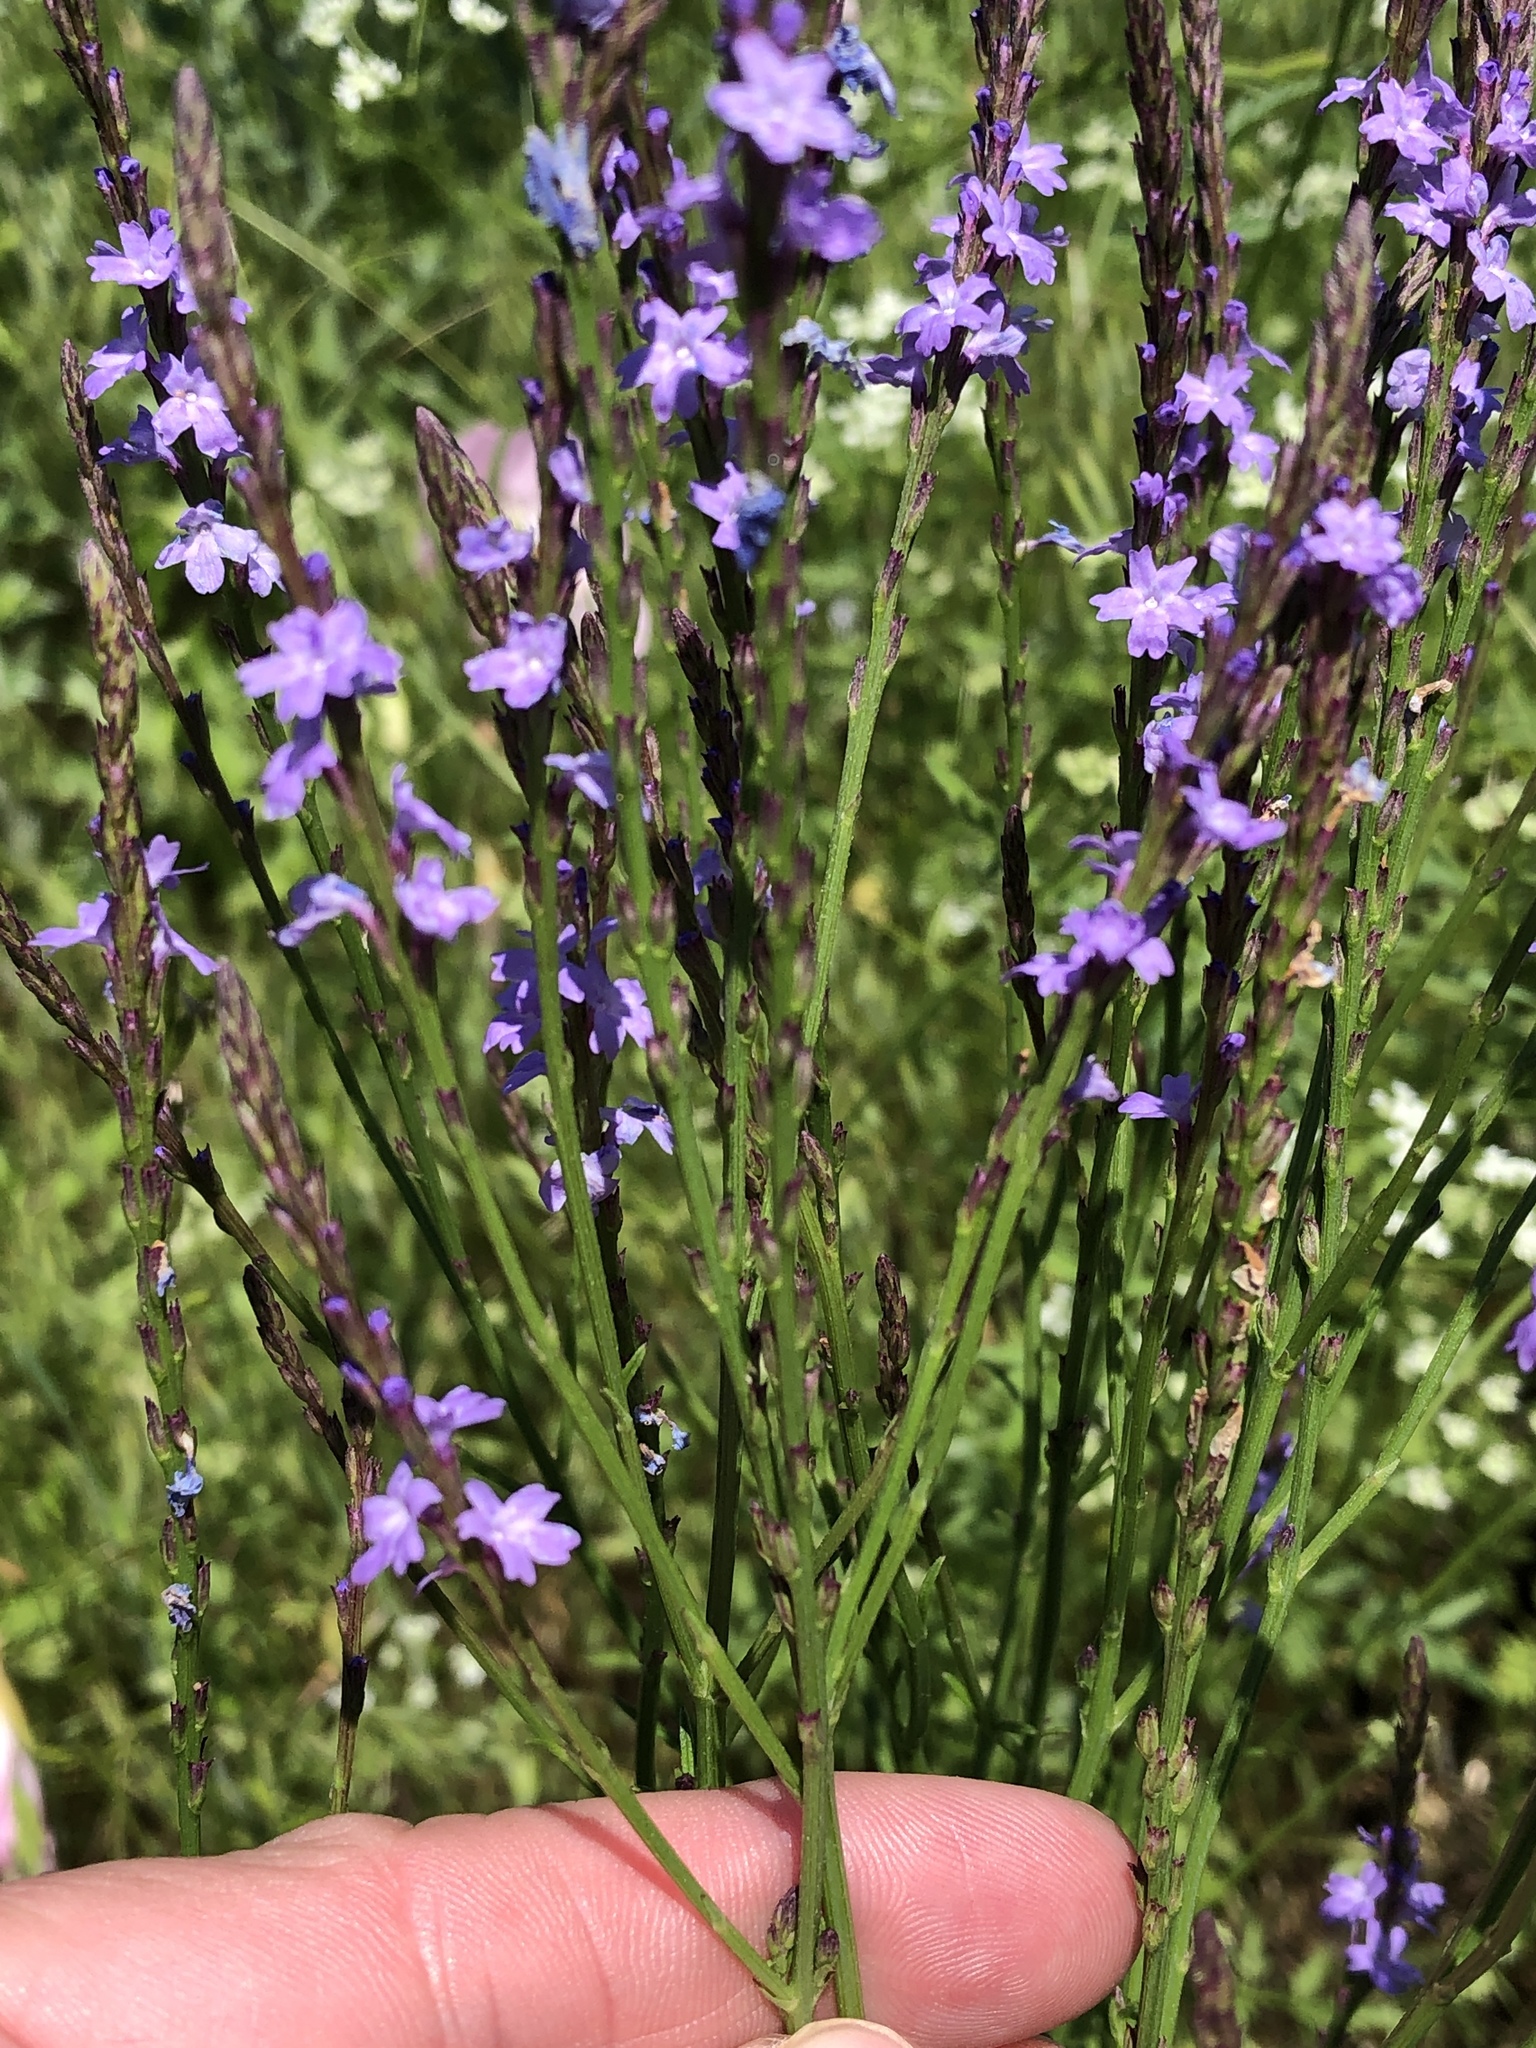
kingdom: Plantae
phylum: Tracheophyta
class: Magnoliopsida
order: Lamiales
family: Verbenaceae
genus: Verbena
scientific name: Verbena halei
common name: Texas vervain
